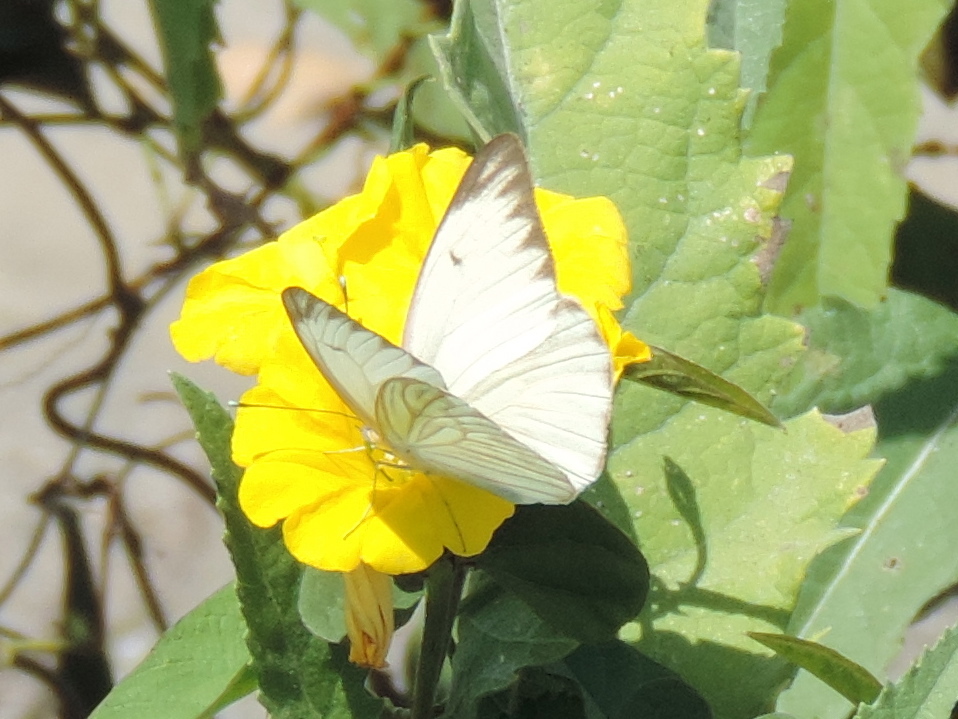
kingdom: Animalia
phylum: Arthropoda
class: Insecta
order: Lepidoptera
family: Pieridae
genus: Ascia
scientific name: Ascia monuste
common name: Great southern white
